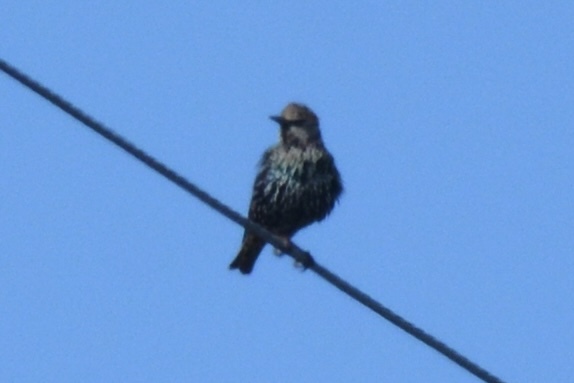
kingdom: Animalia
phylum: Chordata
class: Aves
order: Passeriformes
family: Sturnidae
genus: Sturnus
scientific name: Sturnus vulgaris
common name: Common starling
